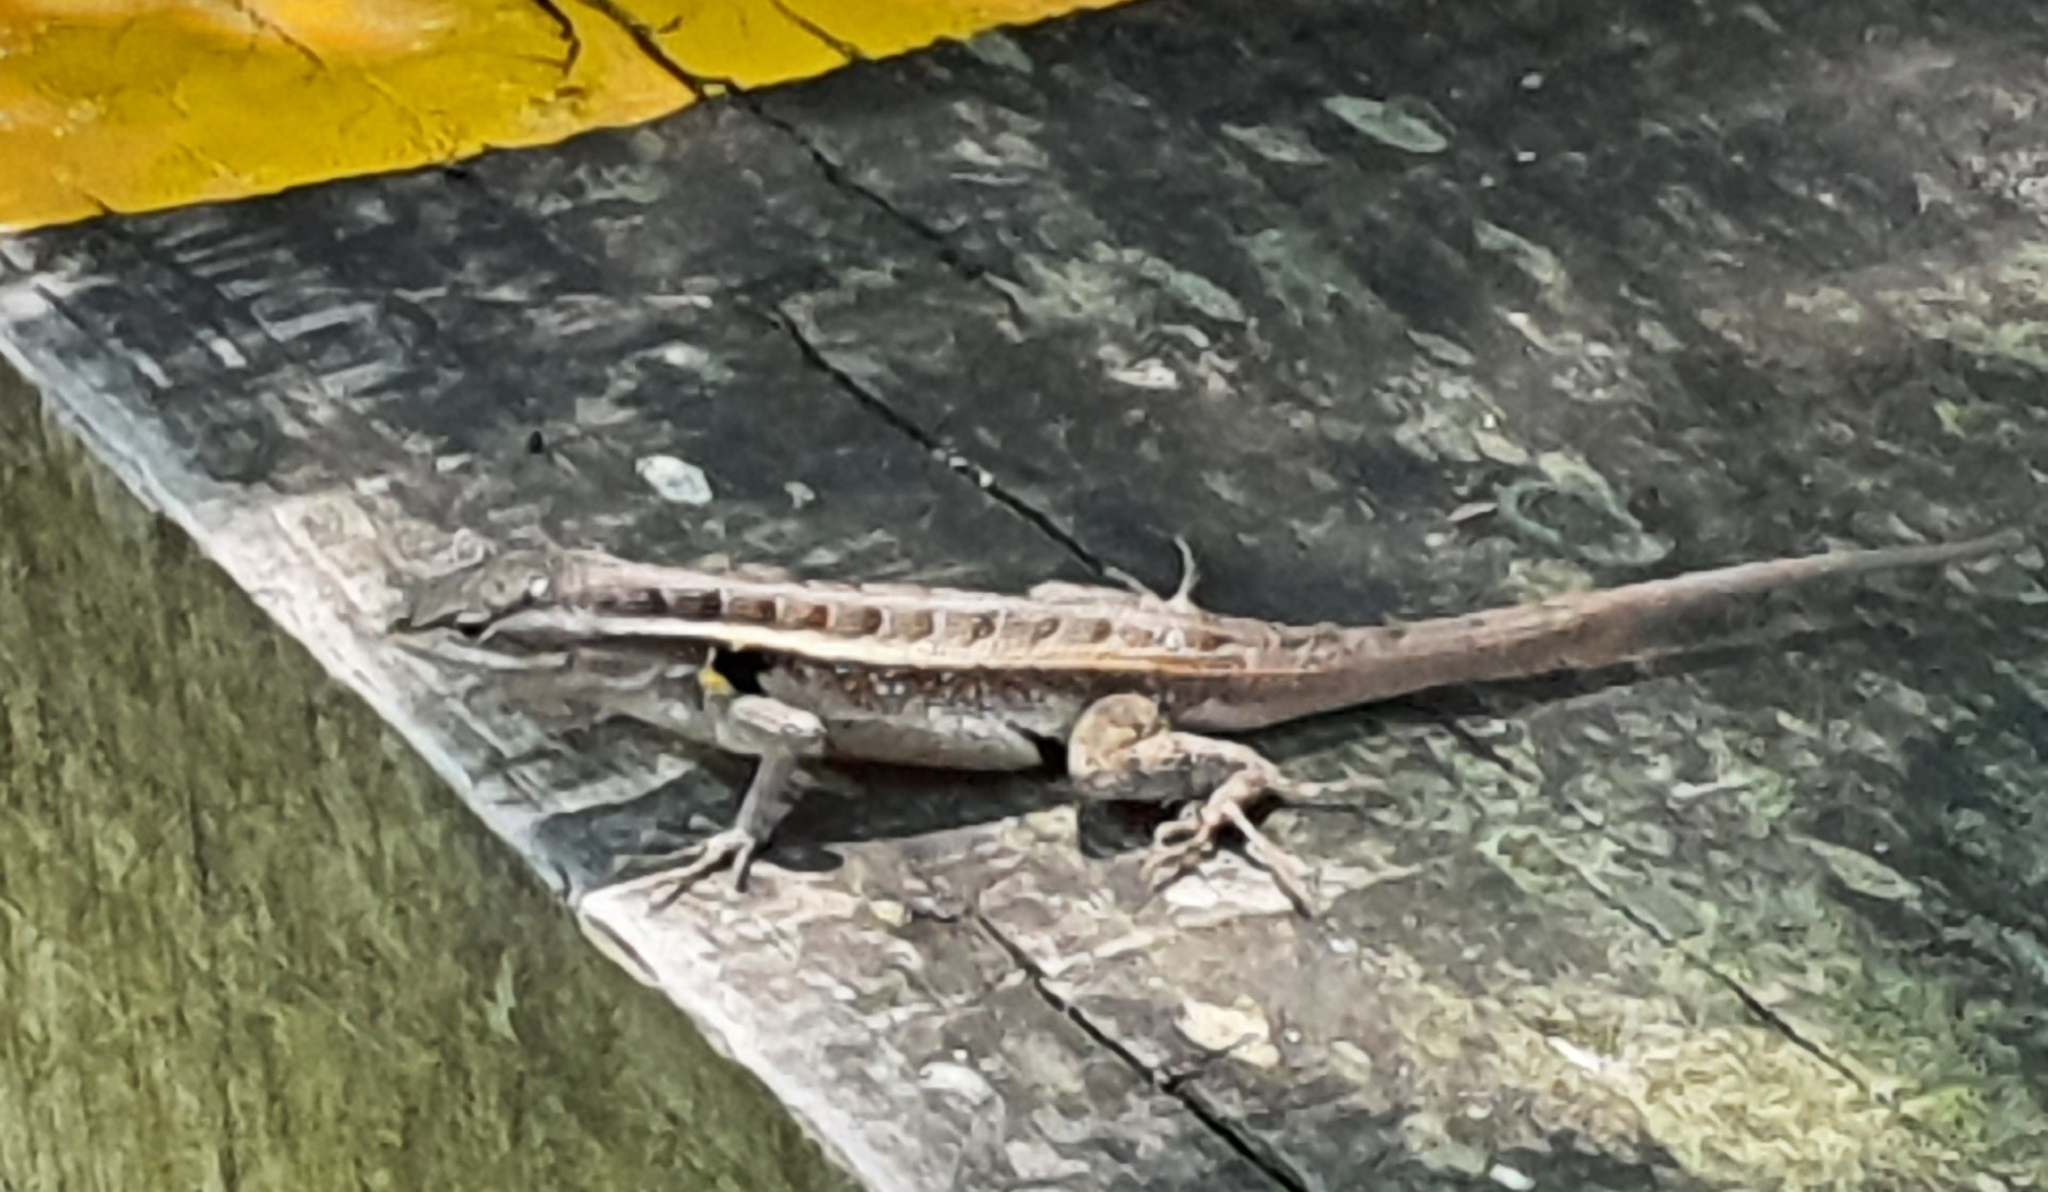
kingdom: Animalia
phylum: Chordata
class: Squamata
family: Phrynosomatidae
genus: Sceloporus
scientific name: Sceloporus variabilis
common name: Rosebelly lizard
